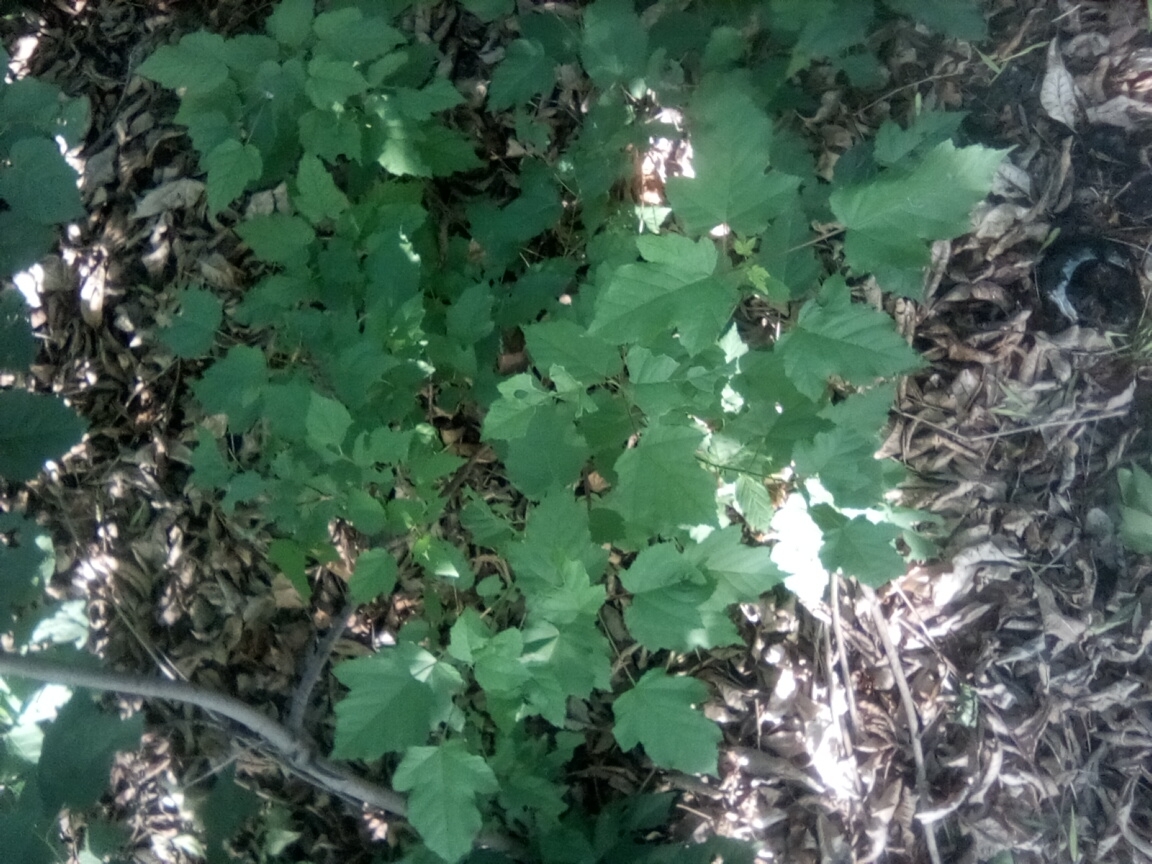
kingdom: Plantae
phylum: Tracheophyta
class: Magnoliopsida
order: Sapindales
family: Sapindaceae
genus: Acer
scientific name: Acer tataricum
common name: Tartar maple
